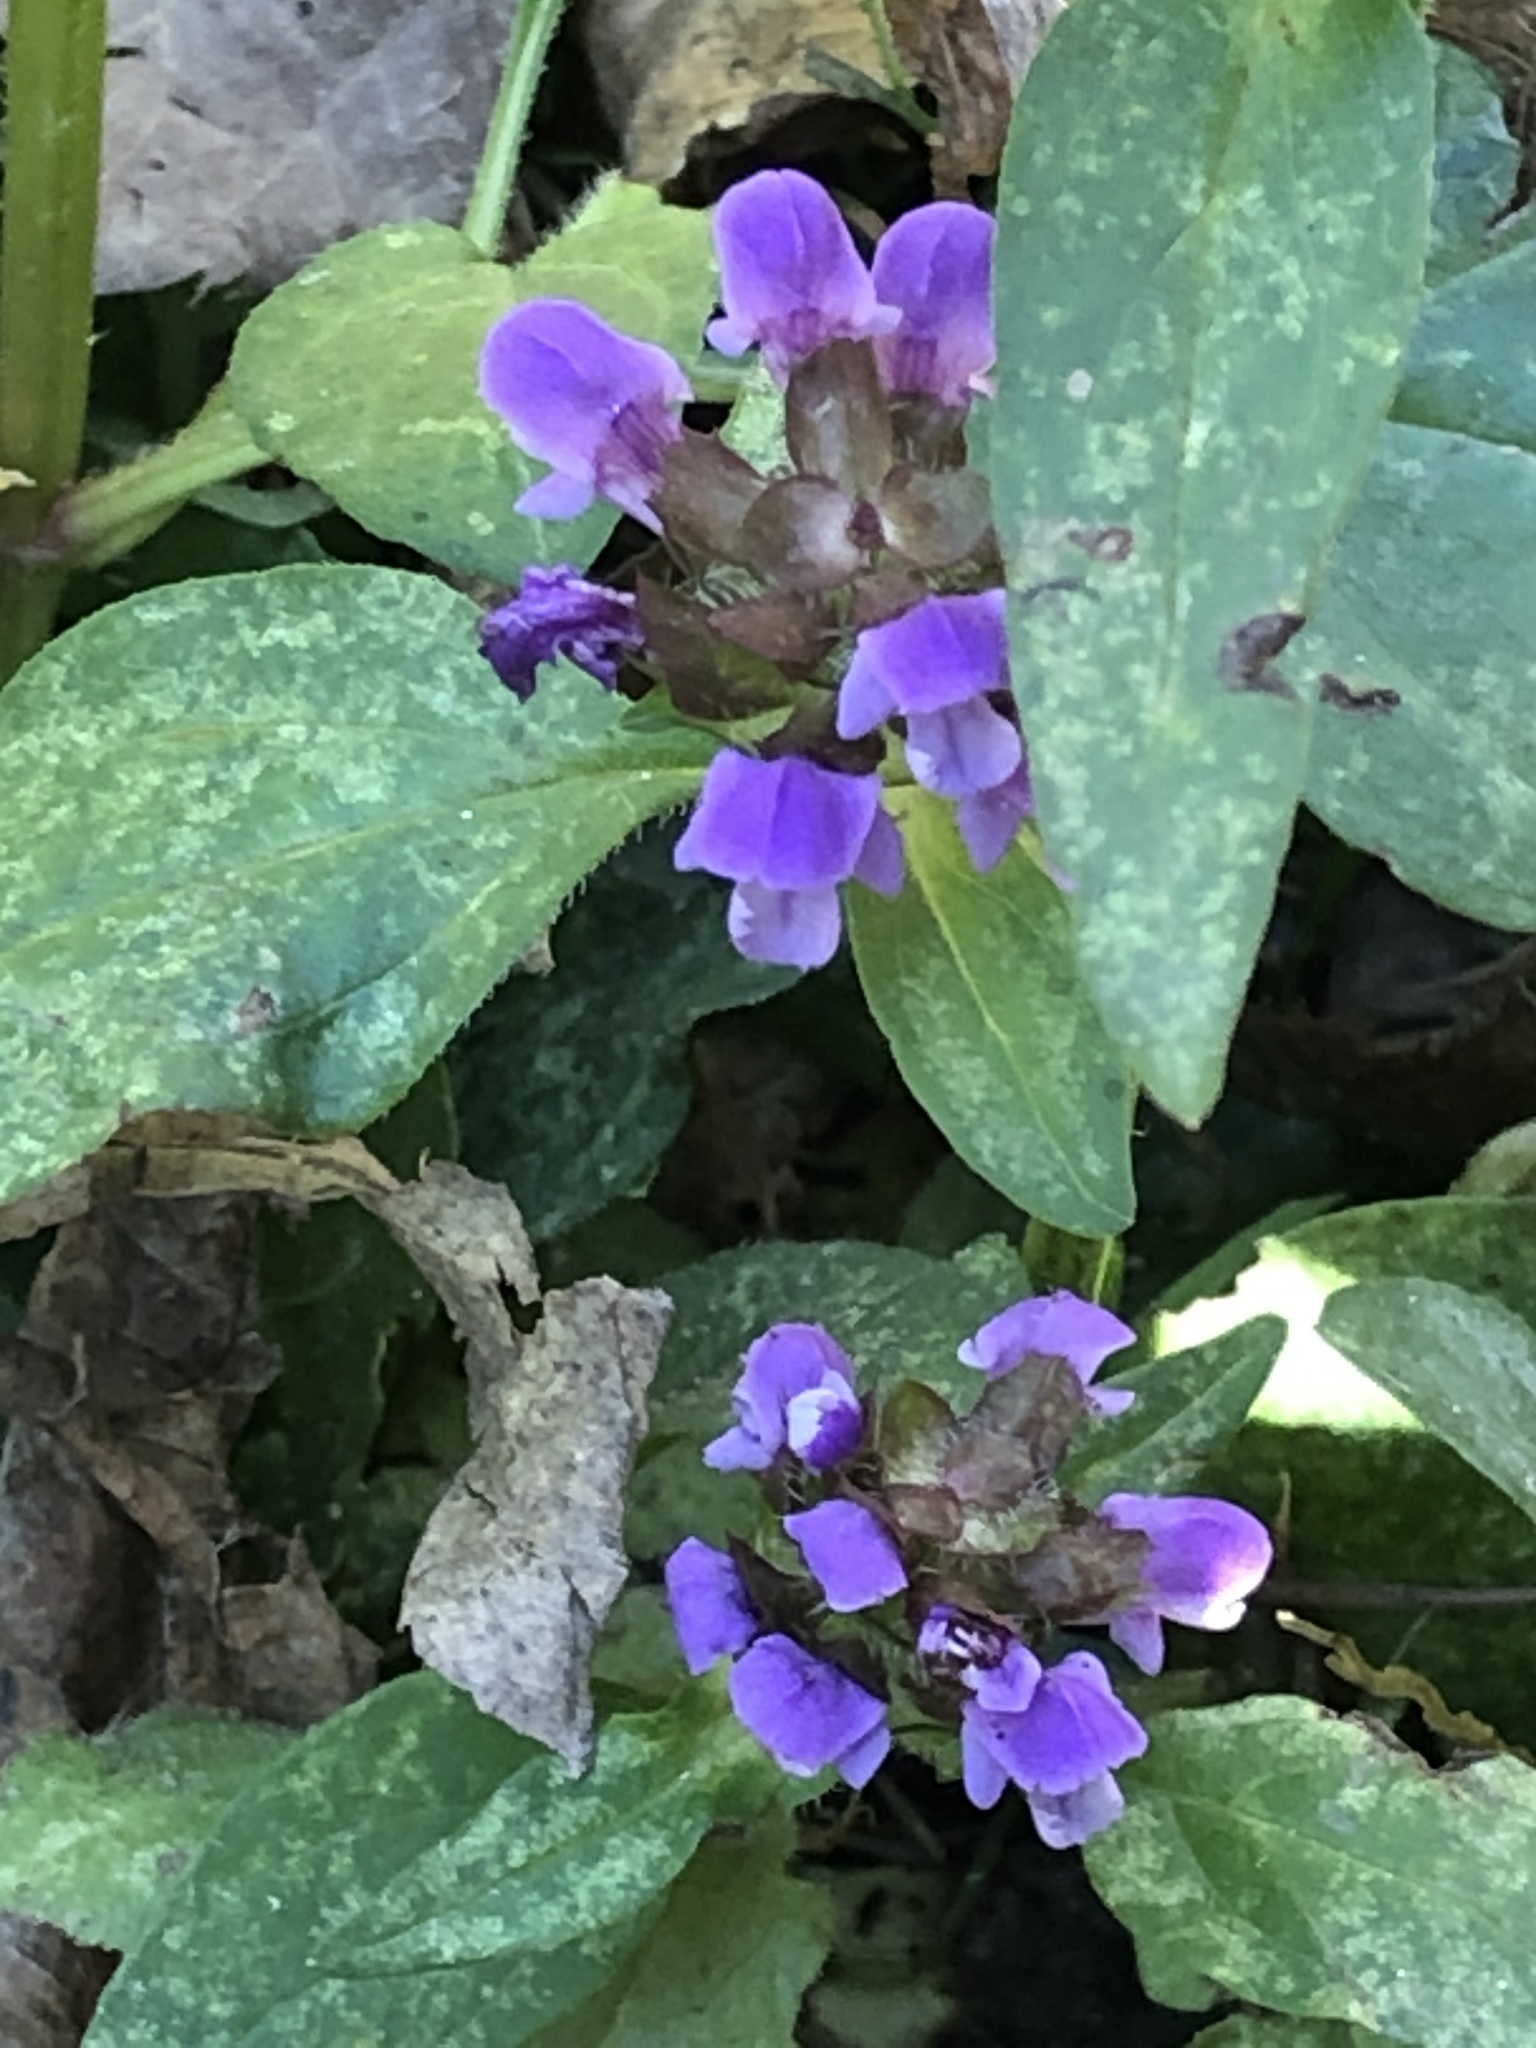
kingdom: Plantae
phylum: Tracheophyta
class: Magnoliopsida
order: Lamiales
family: Lamiaceae
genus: Prunella
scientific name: Prunella vulgaris
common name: Heal-all
